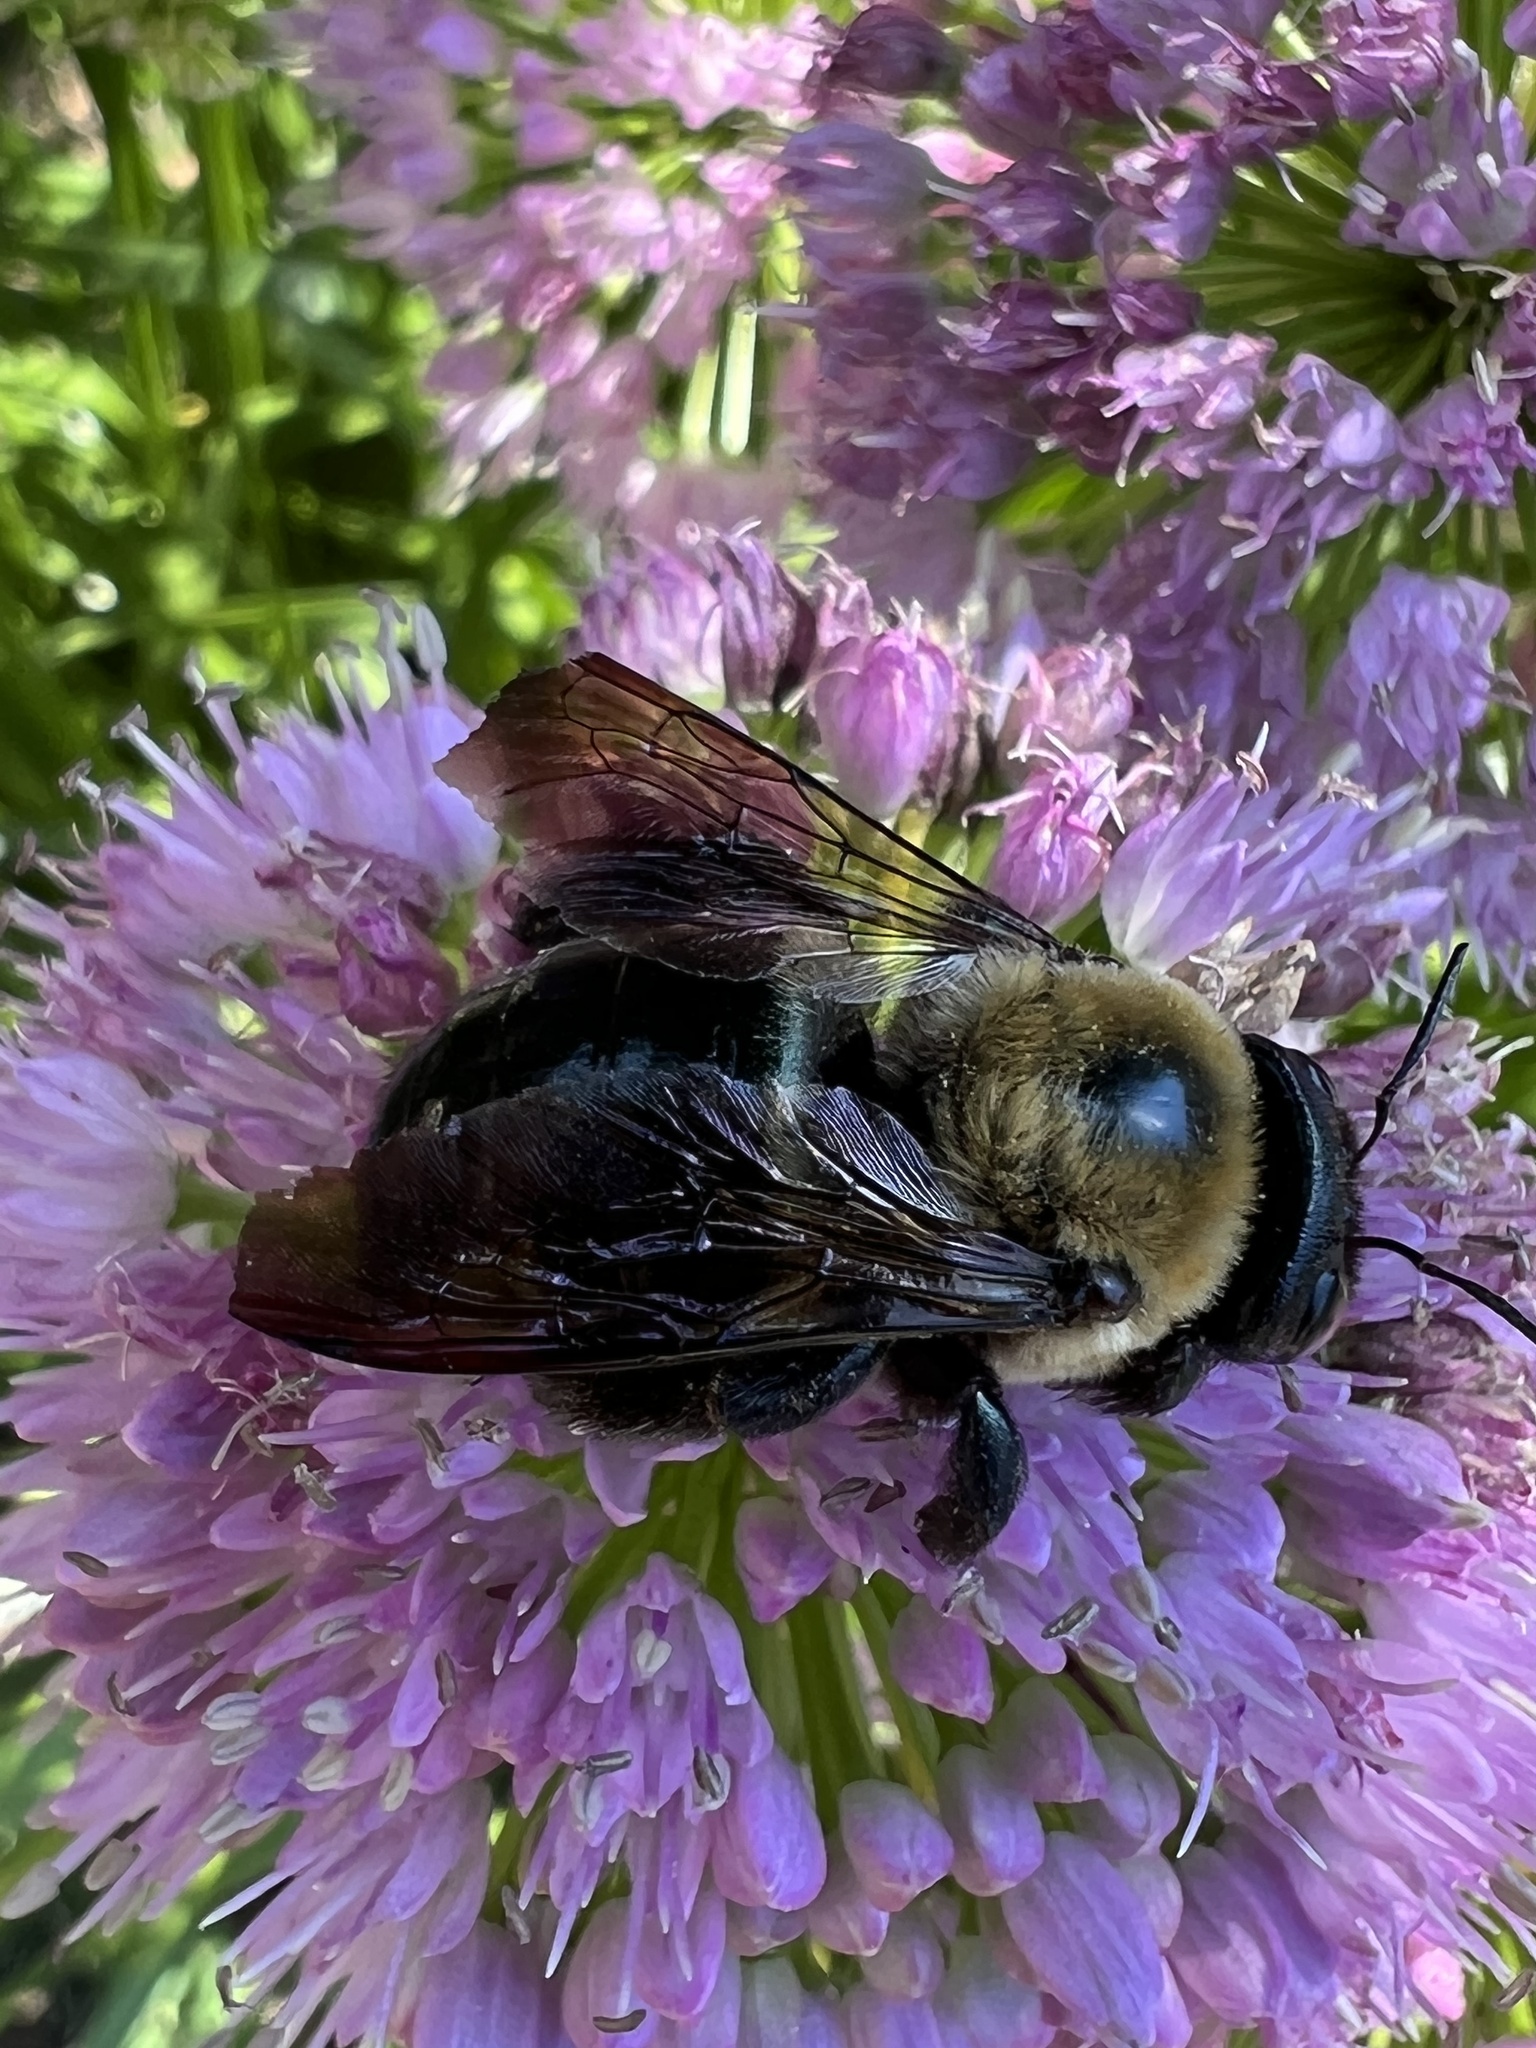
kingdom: Animalia
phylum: Arthropoda
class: Insecta
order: Hymenoptera
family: Apidae
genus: Xylocopa
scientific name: Xylocopa virginica
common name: Carpenter bee
